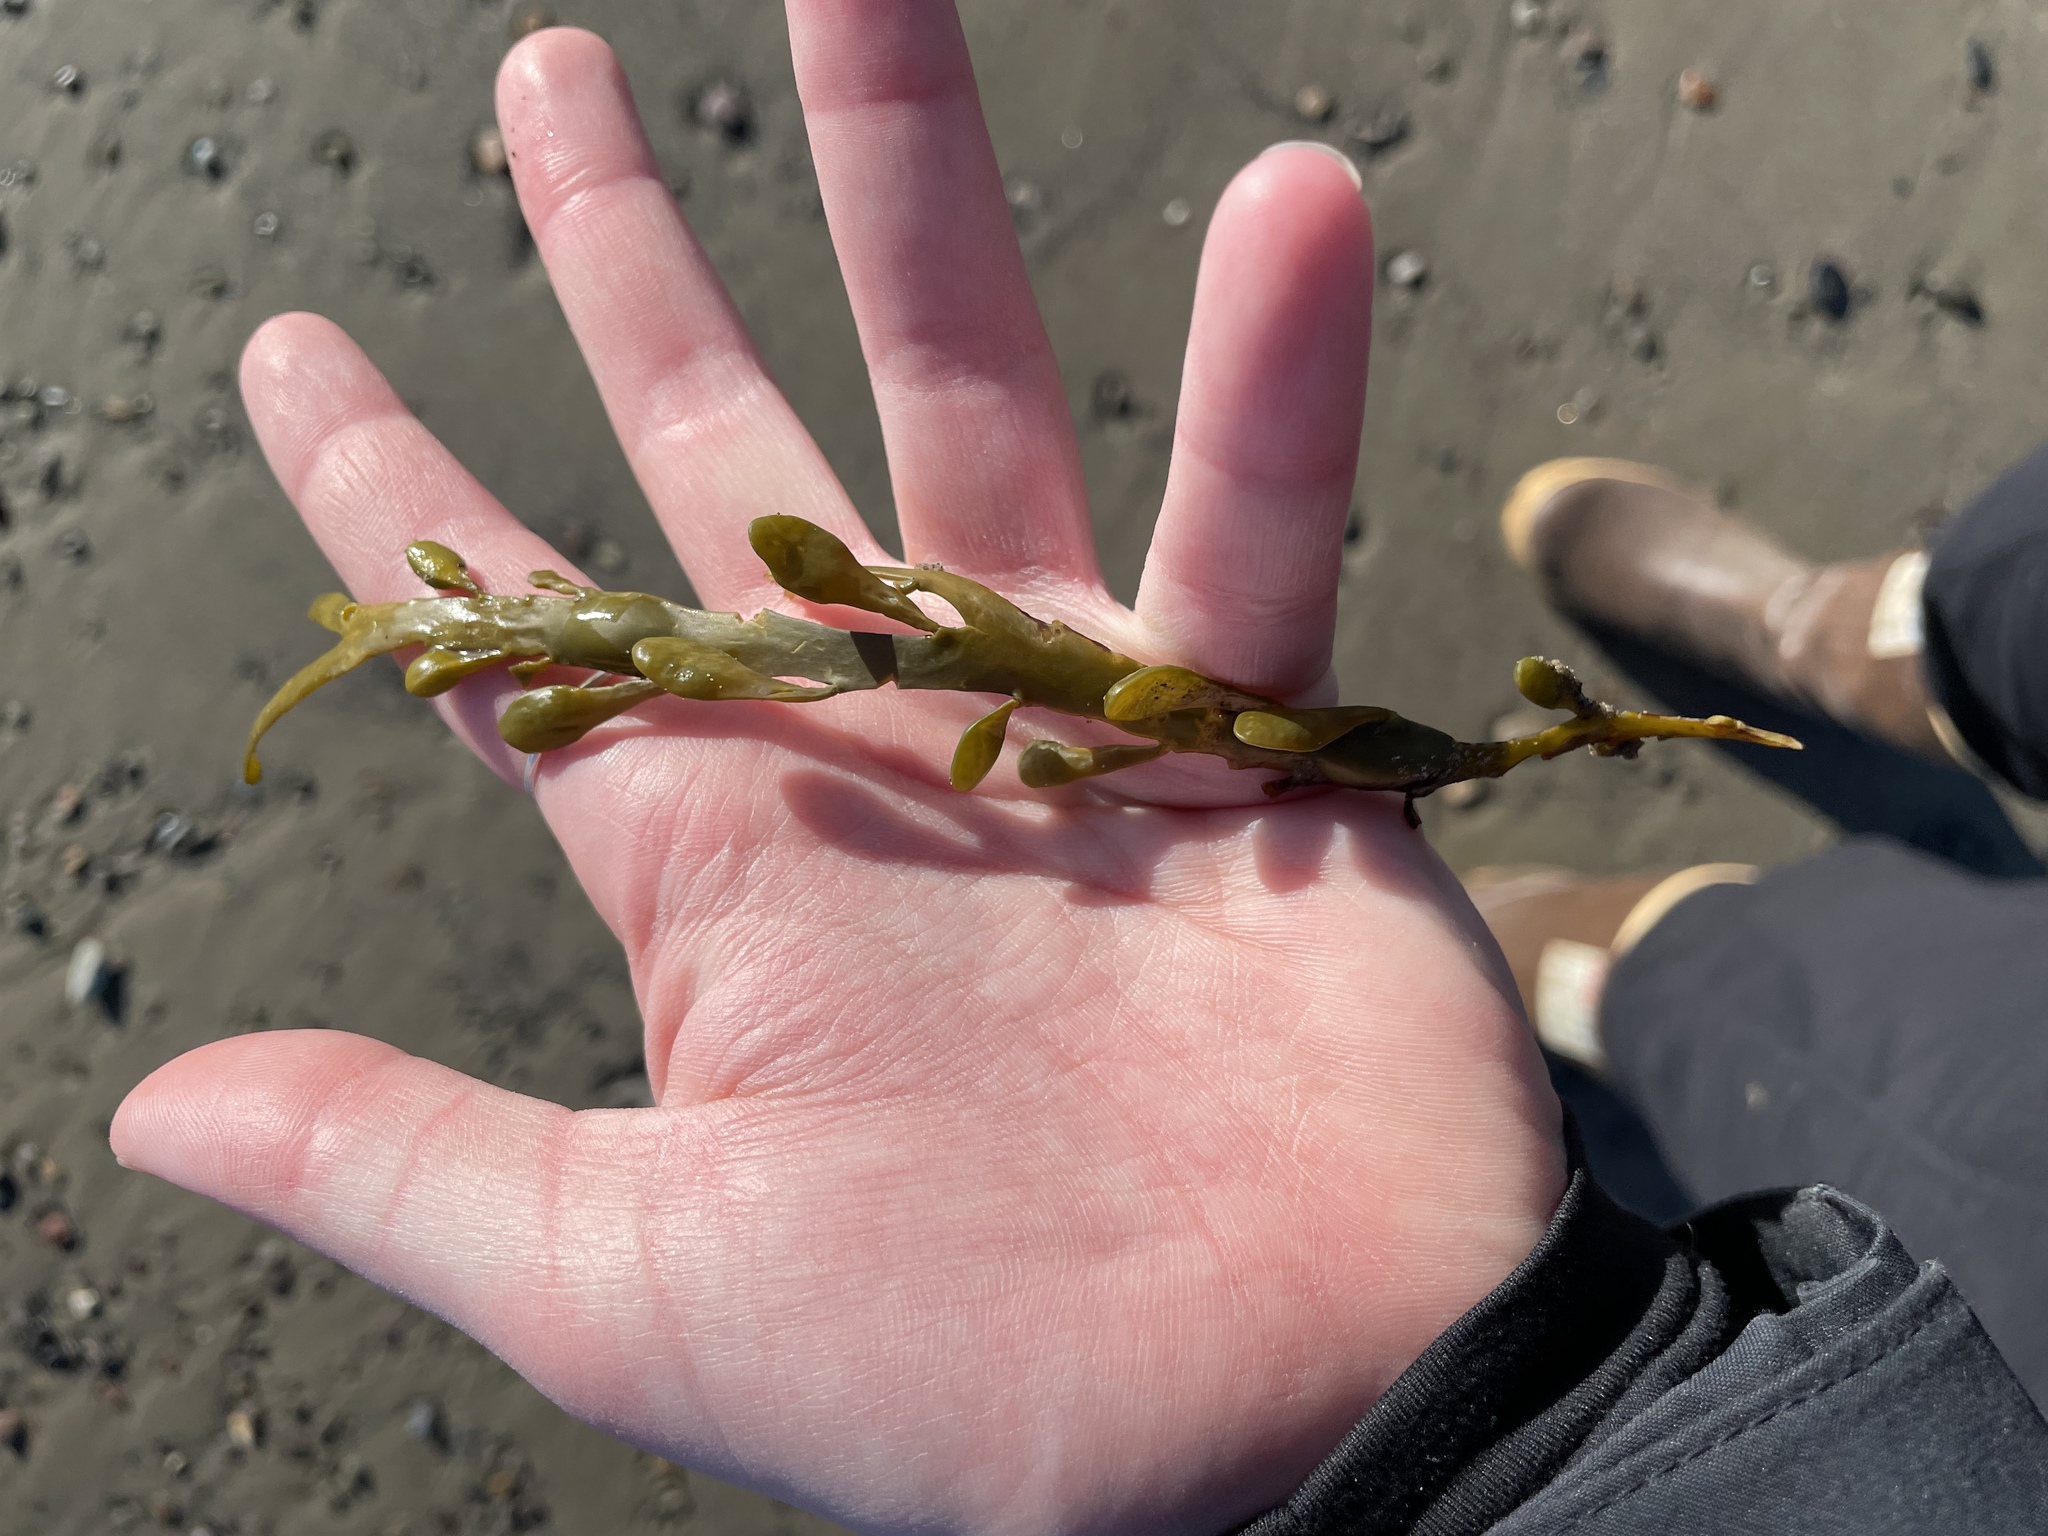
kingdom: Chromista
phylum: Ochrophyta
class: Phaeophyceae
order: Fucales
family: Fucaceae
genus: Ascophyllum
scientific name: Ascophyllum nodosum
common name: Knotted wrack
